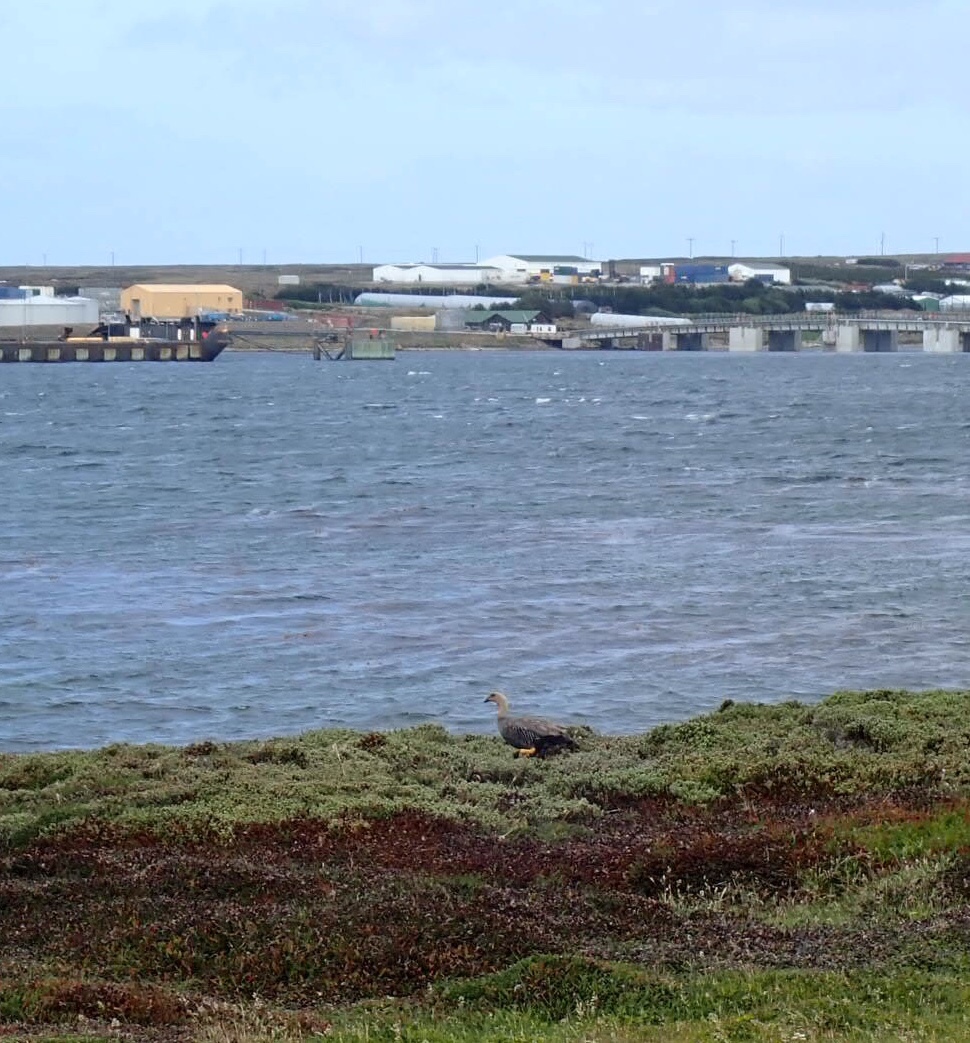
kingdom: Animalia
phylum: Chordata
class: Aves
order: Anseriformes
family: Anatidae
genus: Chloephaga
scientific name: Chloephaga picta
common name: Upland goose
